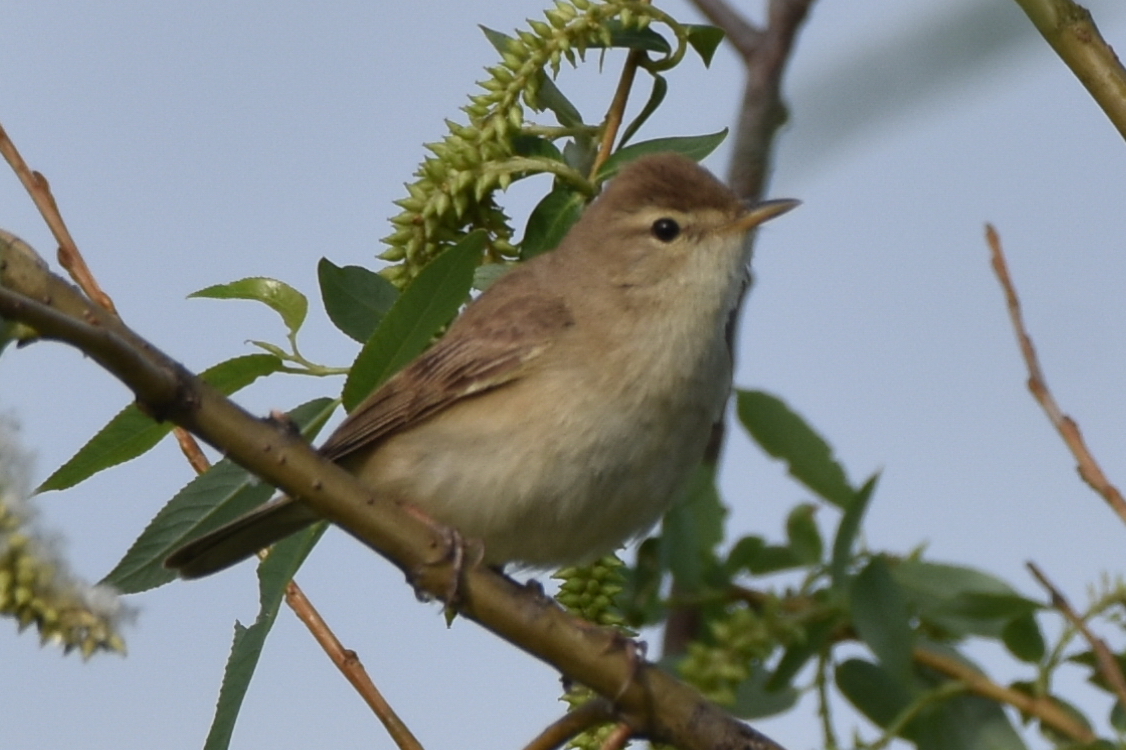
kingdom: Animalia
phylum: Chordata
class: Aves
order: Passeriformes
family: Acrocephalidae
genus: Iduna
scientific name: Iduna caligata
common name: Booted warbler
